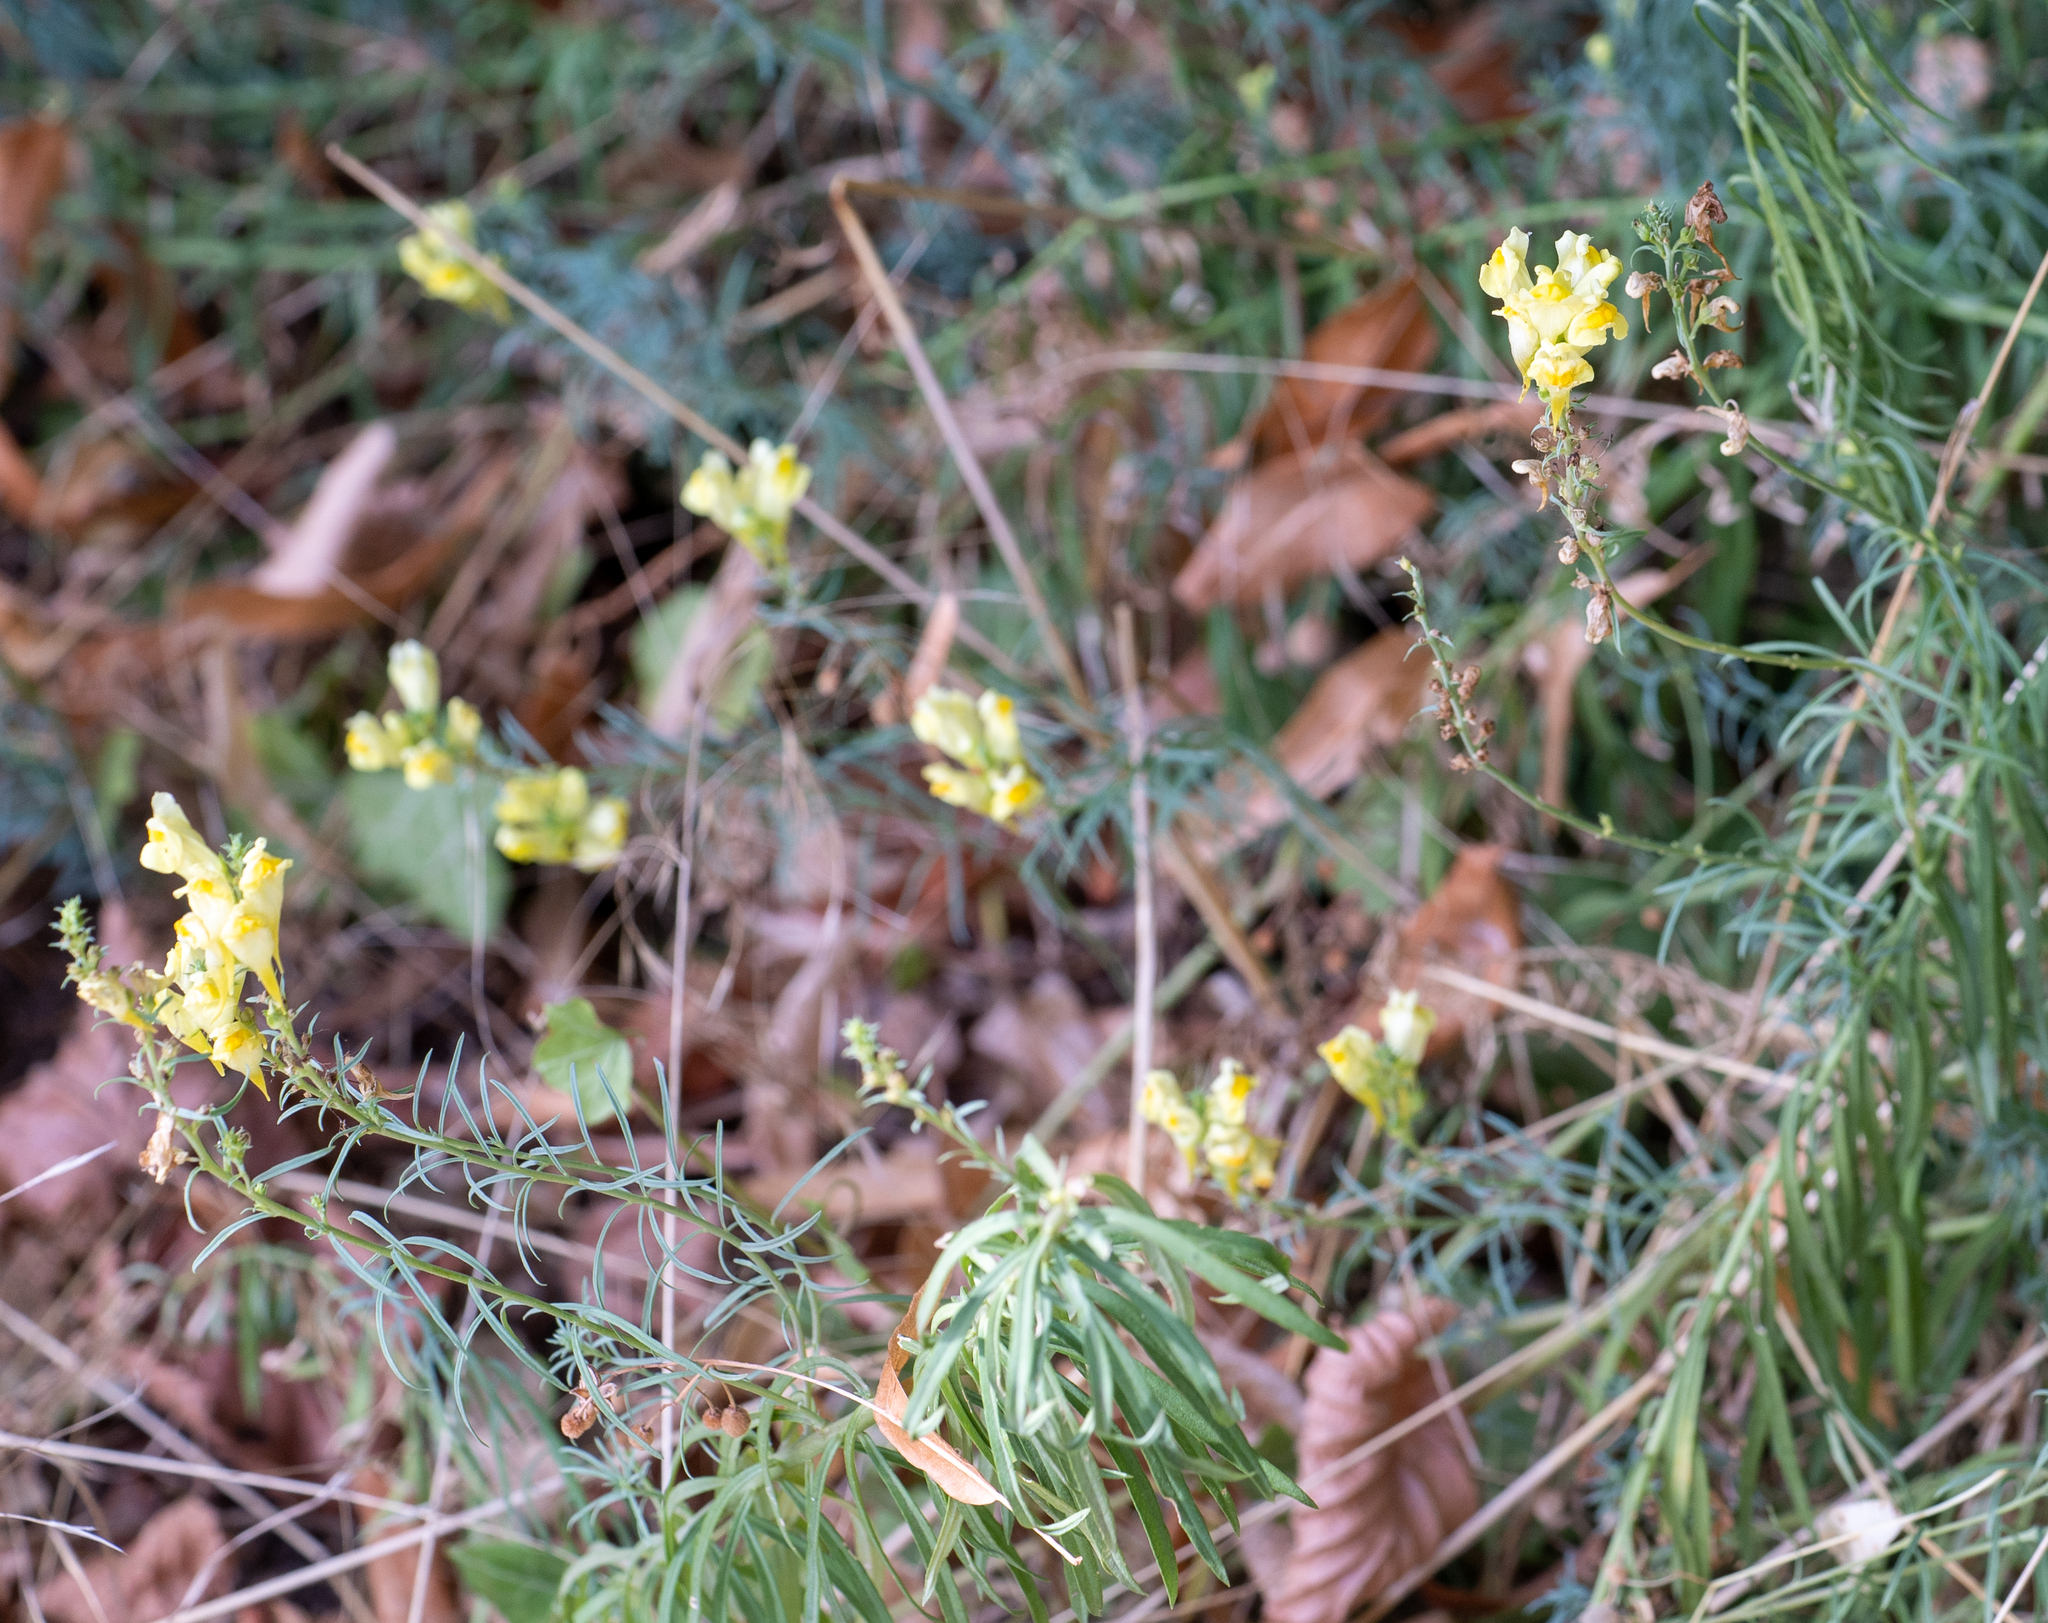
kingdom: Plantae
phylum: Tracheophyta
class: Magnoliopsida
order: Lamiales
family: Plantaginaceae
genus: Linaria
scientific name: Linaria vulgaris
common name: Butter and eggs
